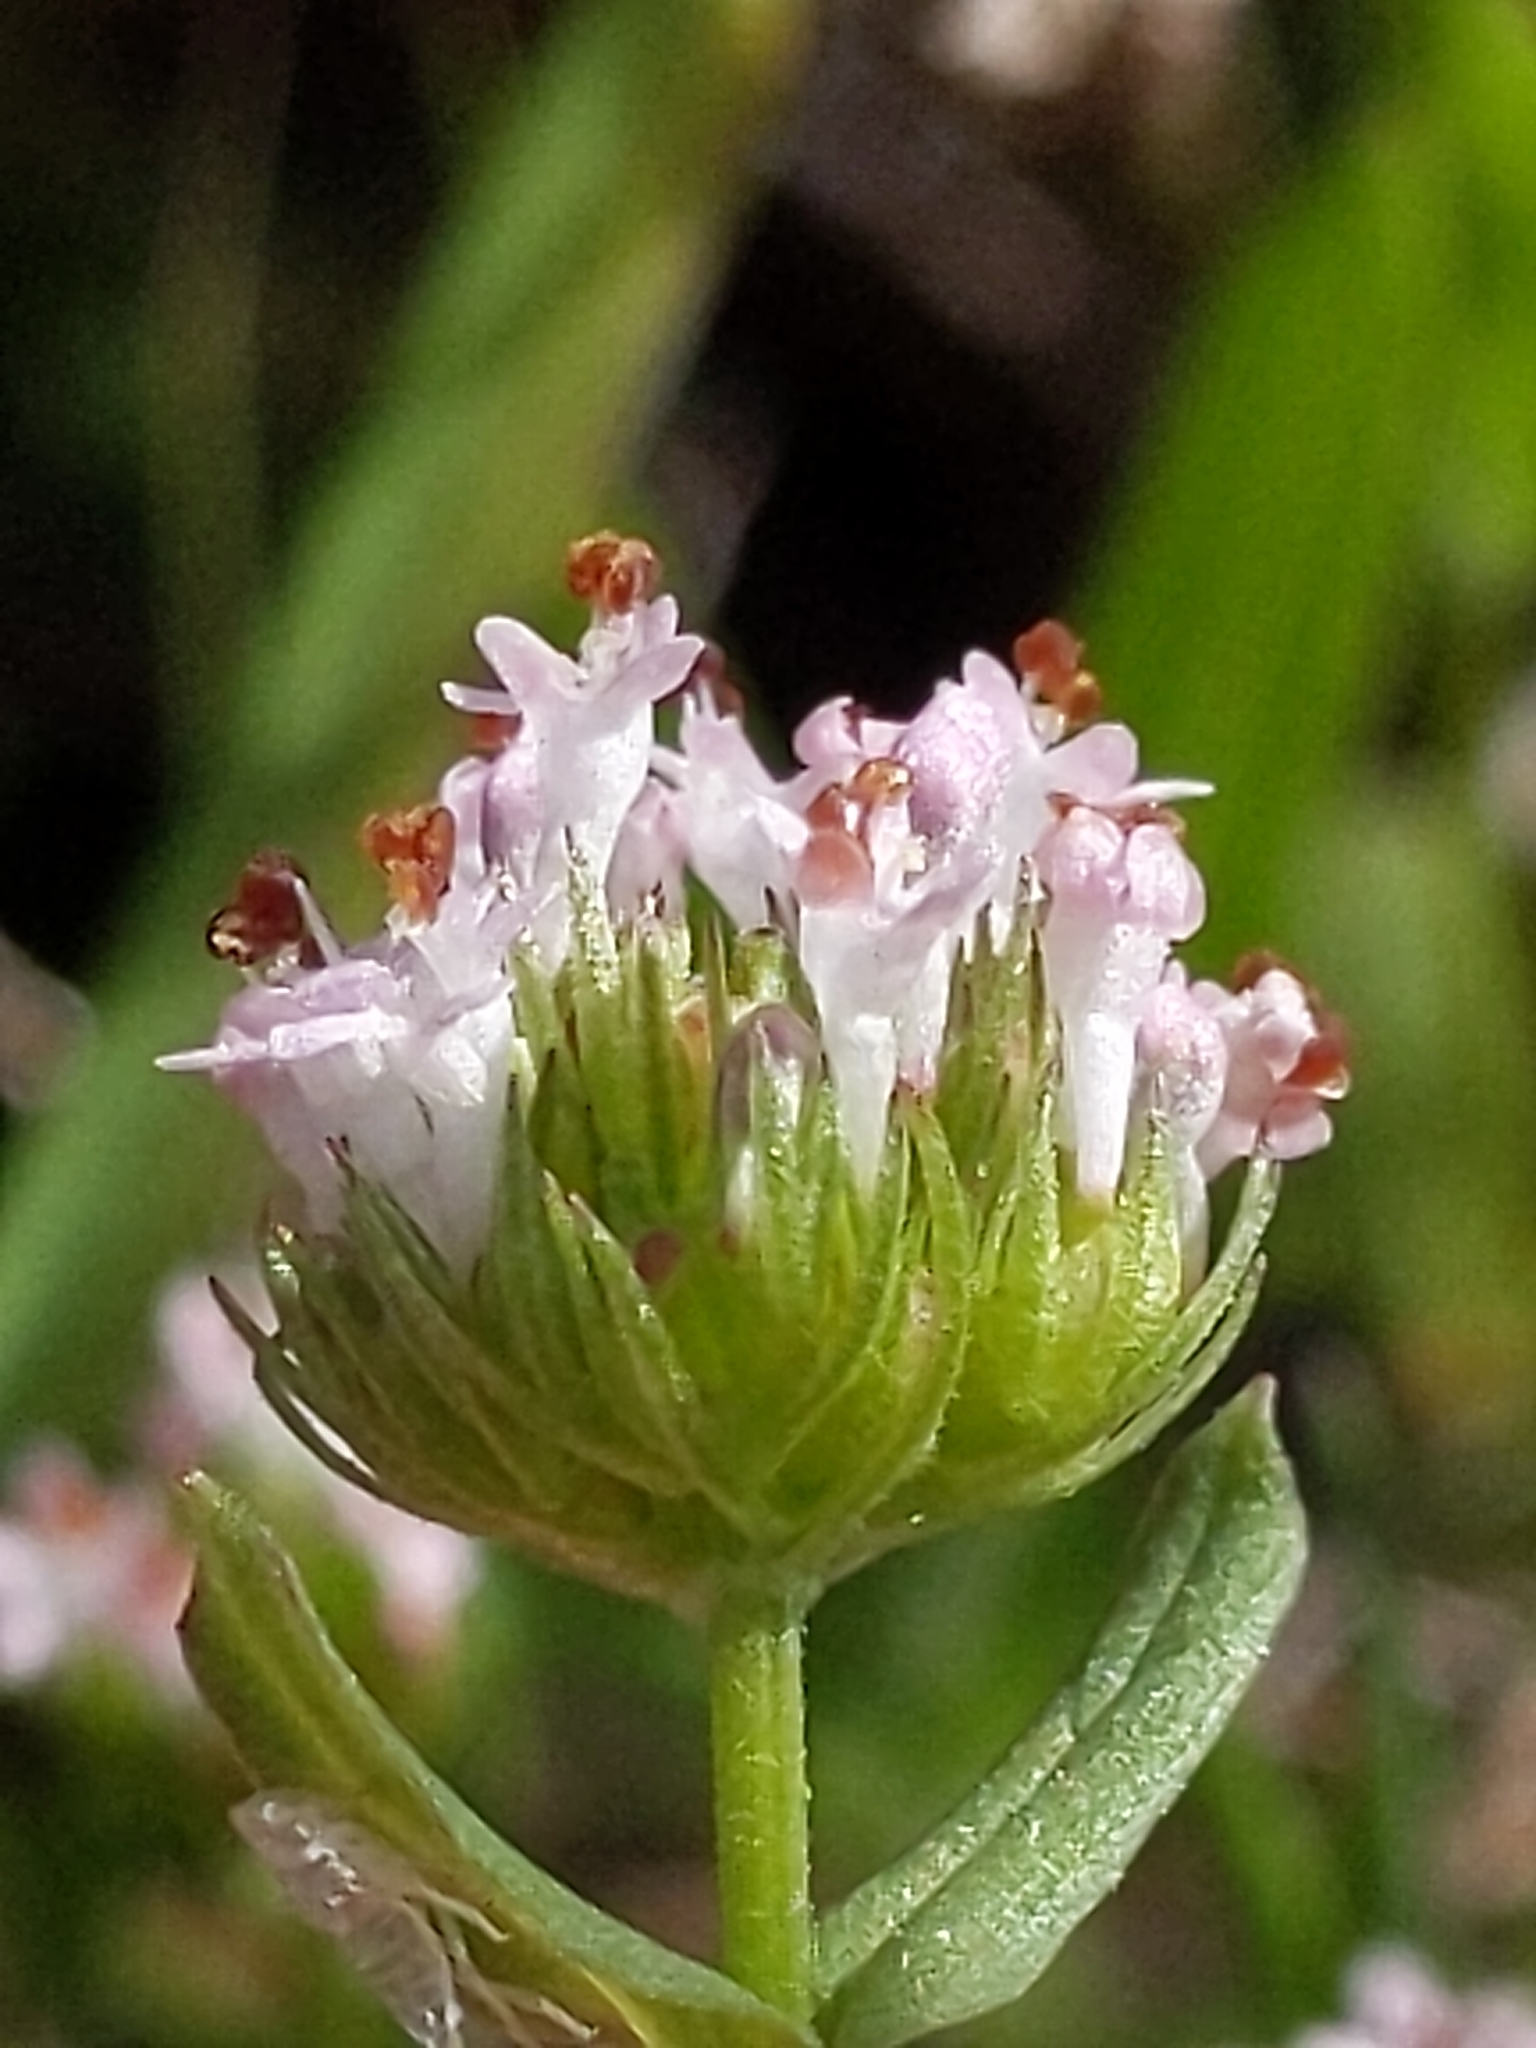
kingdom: Plantae
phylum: Tracheophyta
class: Magnoliopsida
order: Dipsacales
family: Caprifoliaceae
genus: Plectritis
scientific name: Plectritis macroptera
